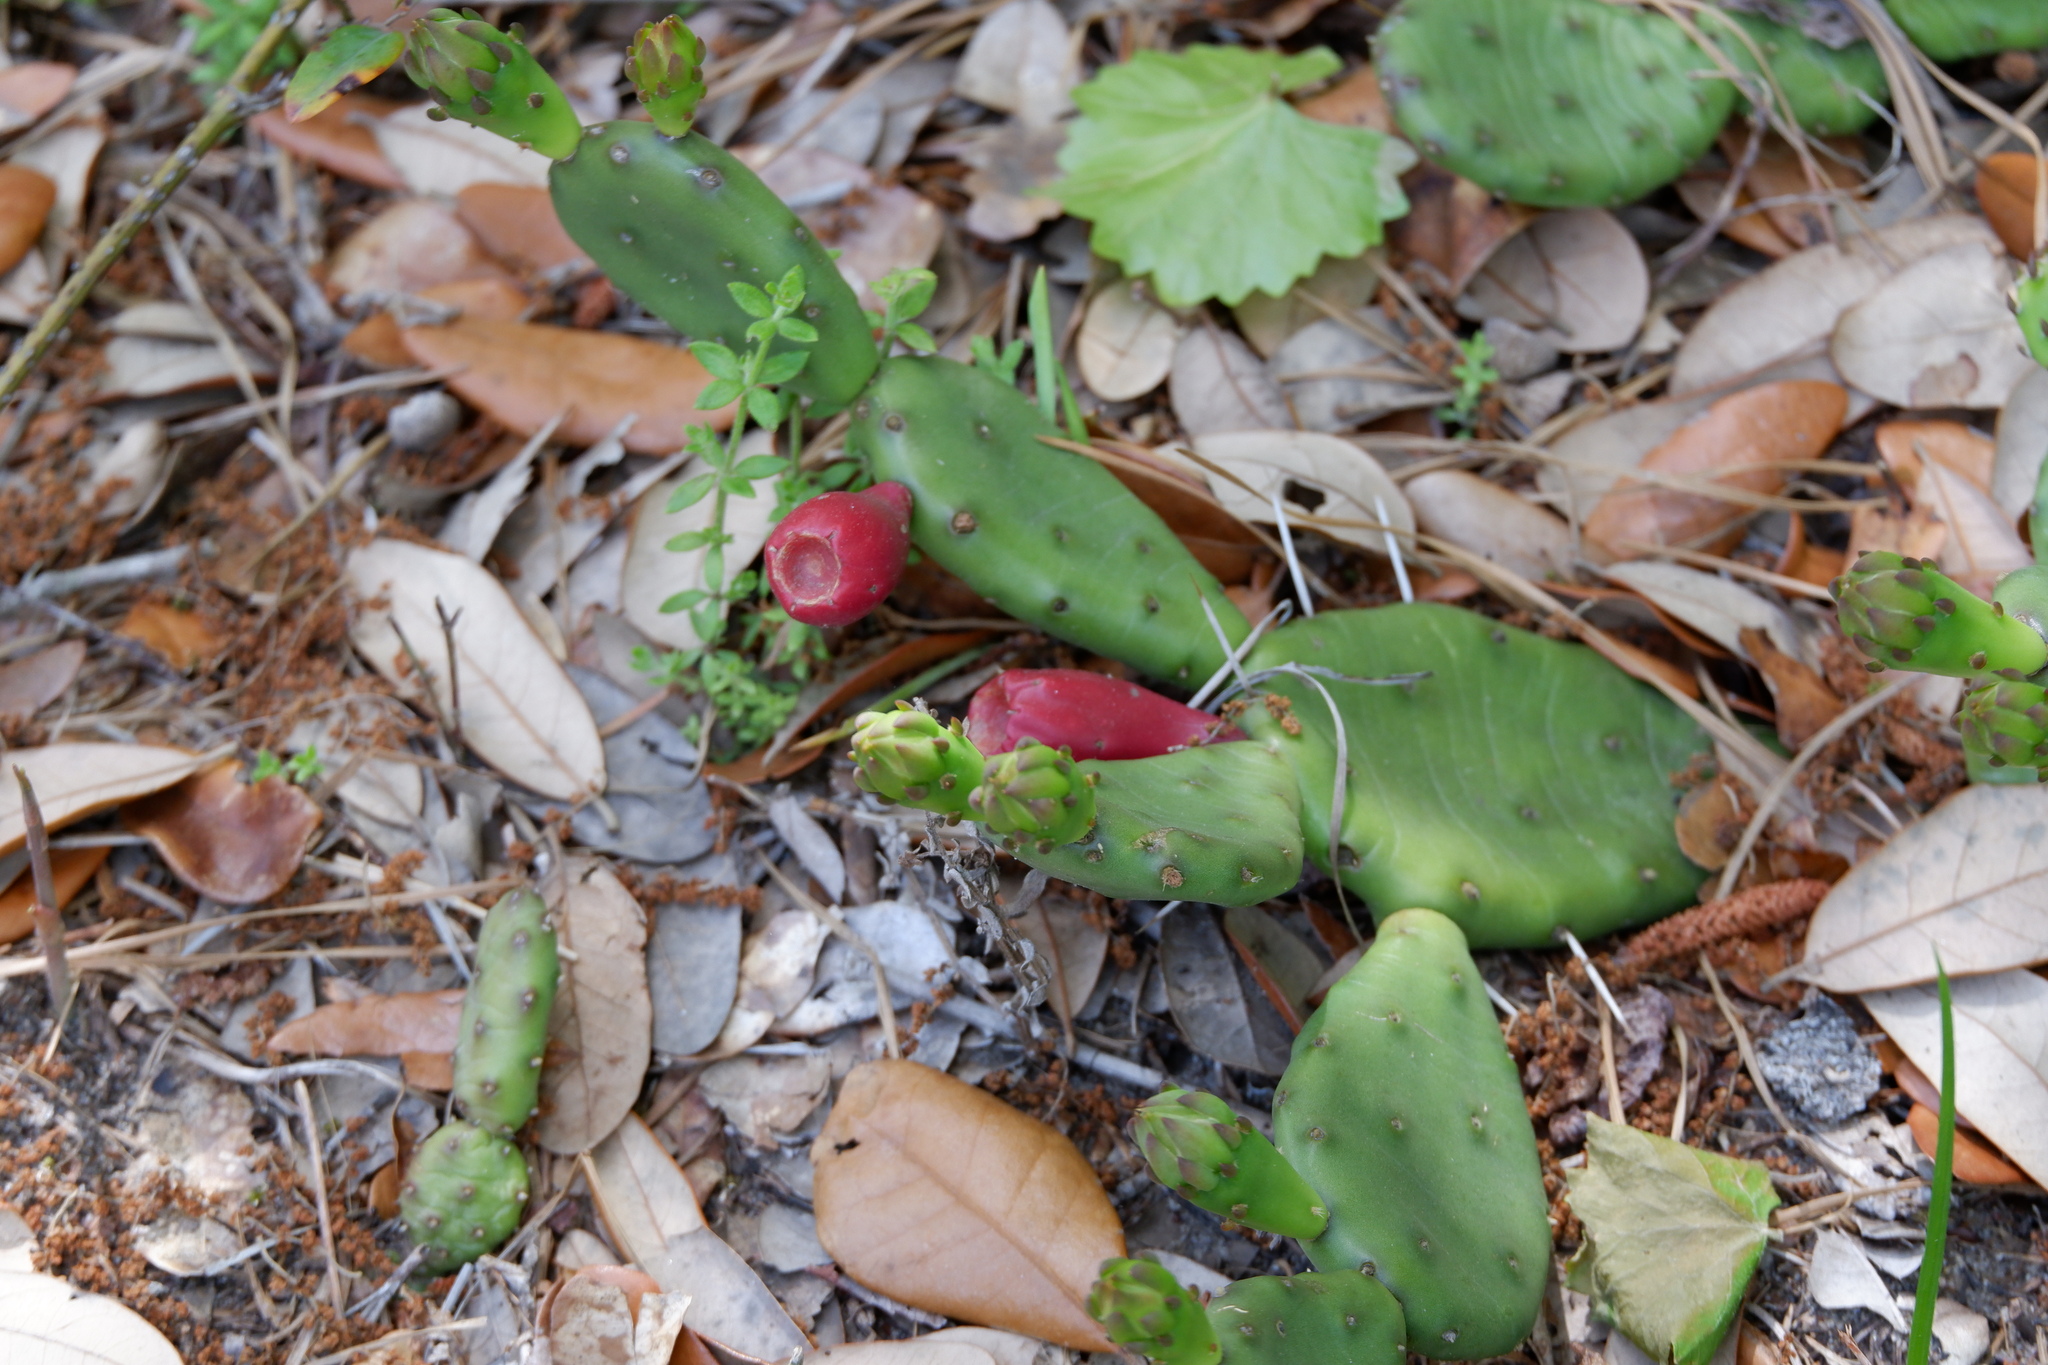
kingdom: Plantae
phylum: Tracheophyta
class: Magnoliopsida
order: Caryophyllales
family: Cactaceae
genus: Opuntia
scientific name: Opuntia humifusa
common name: Eastern prickly-pear
